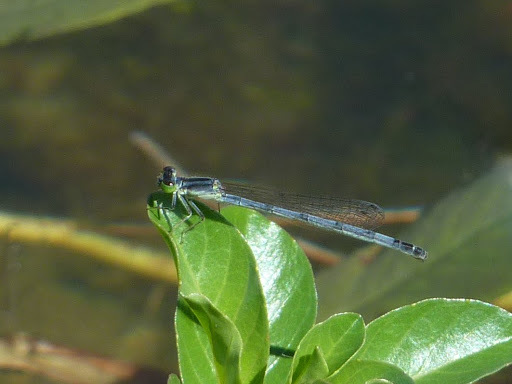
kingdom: Animalia
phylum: Arthropoda
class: Insecta
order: Odonata
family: Coenagrionidae
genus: Ischnura
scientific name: Ischnura verticalis
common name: Eastern forktail
